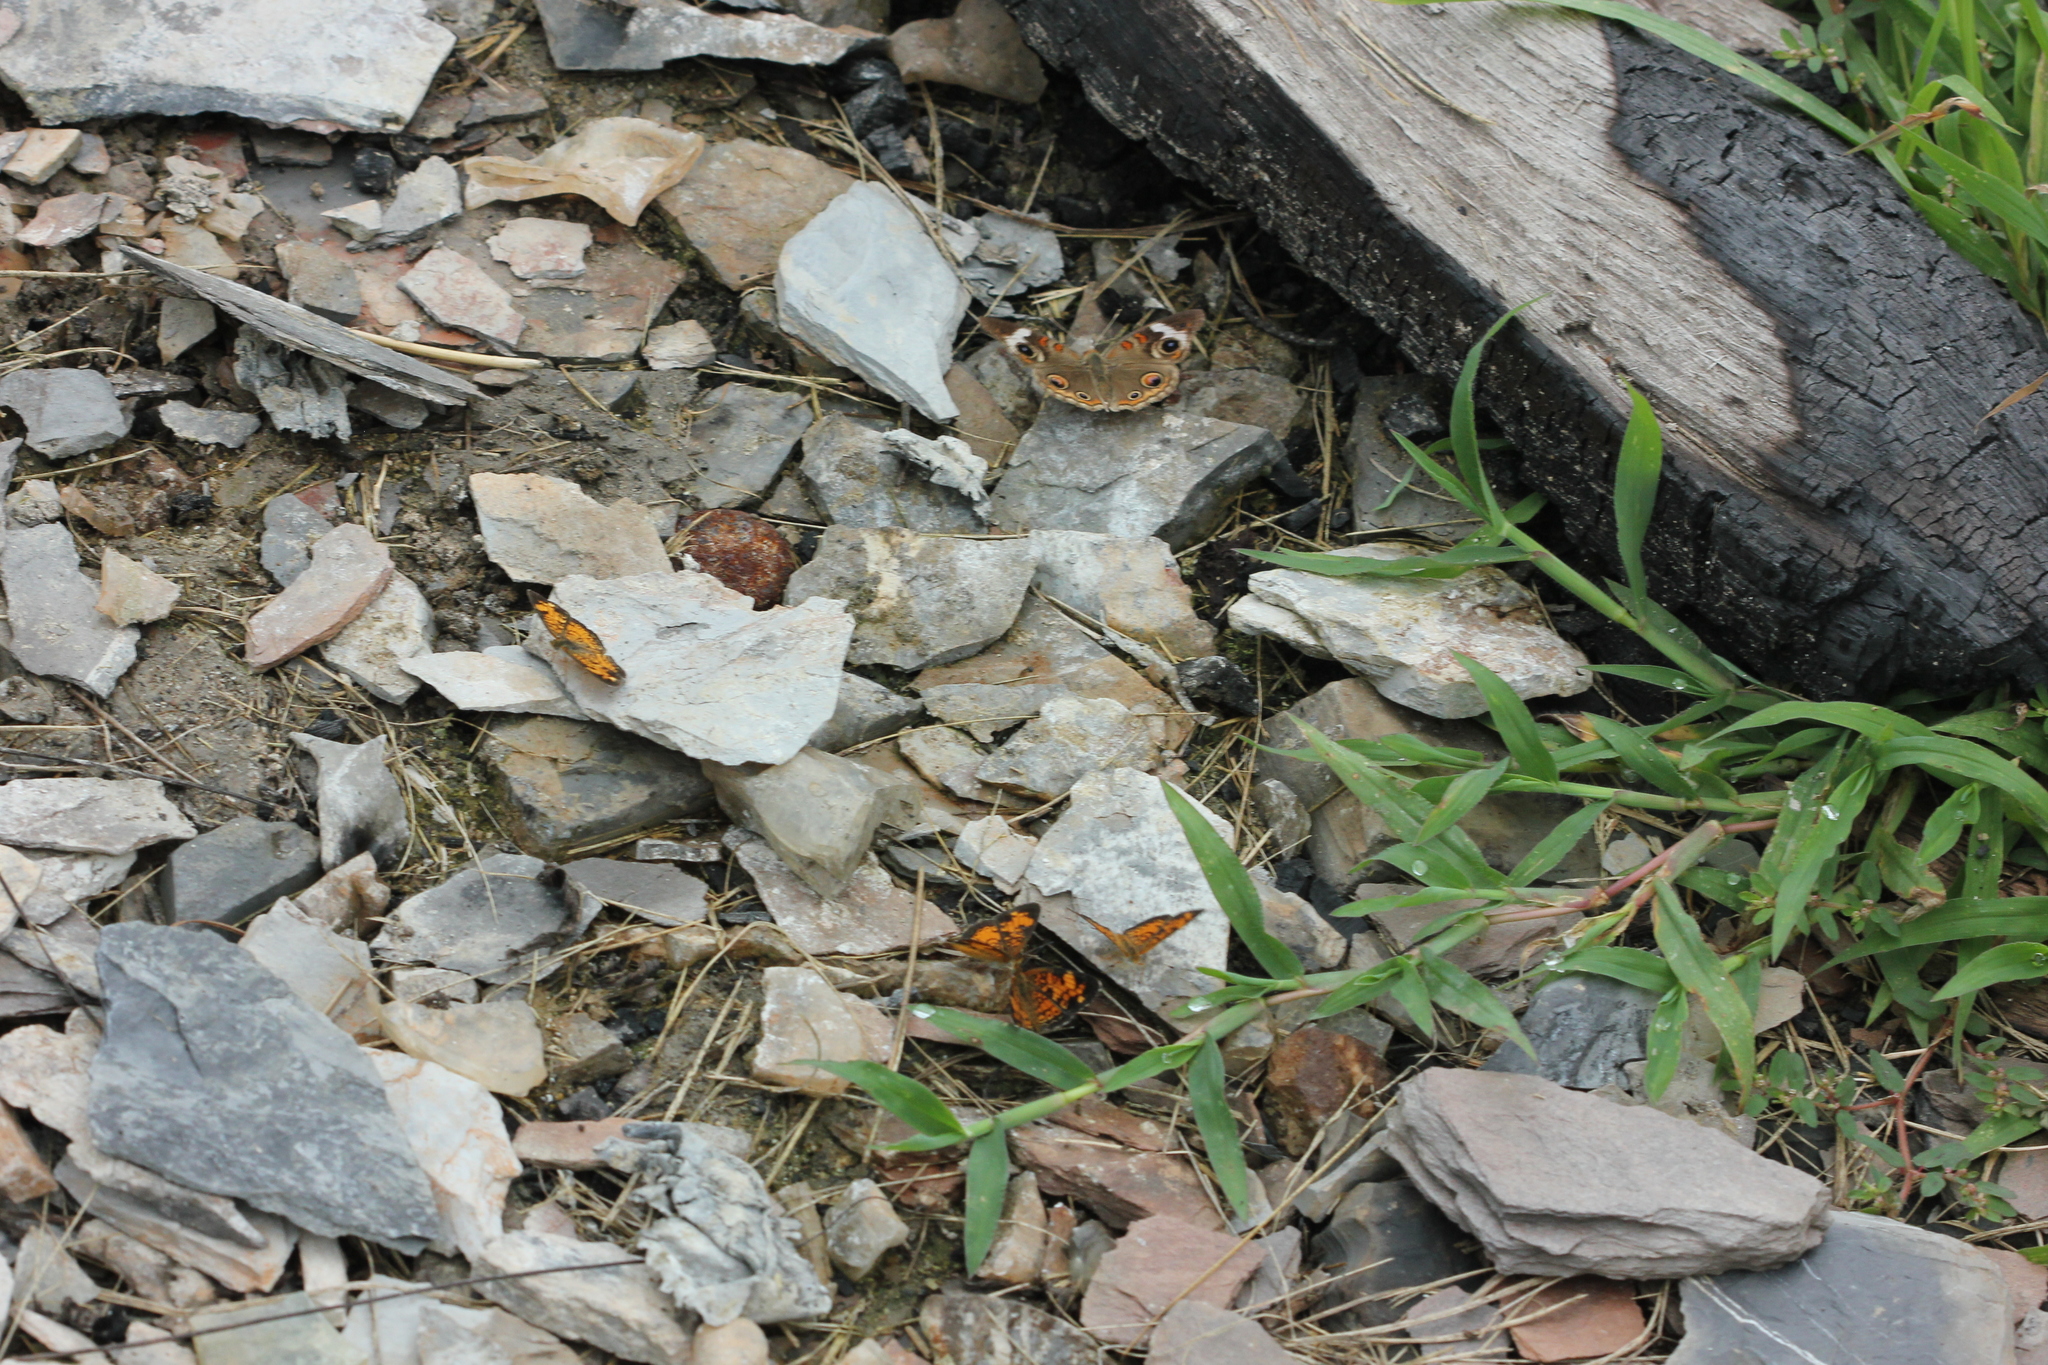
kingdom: Animalia
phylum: Arthropoda
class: Insecta
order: Lepidoptera
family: Nymphalidae
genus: Junonia
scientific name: Junonia coenia
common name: Common buckeye
